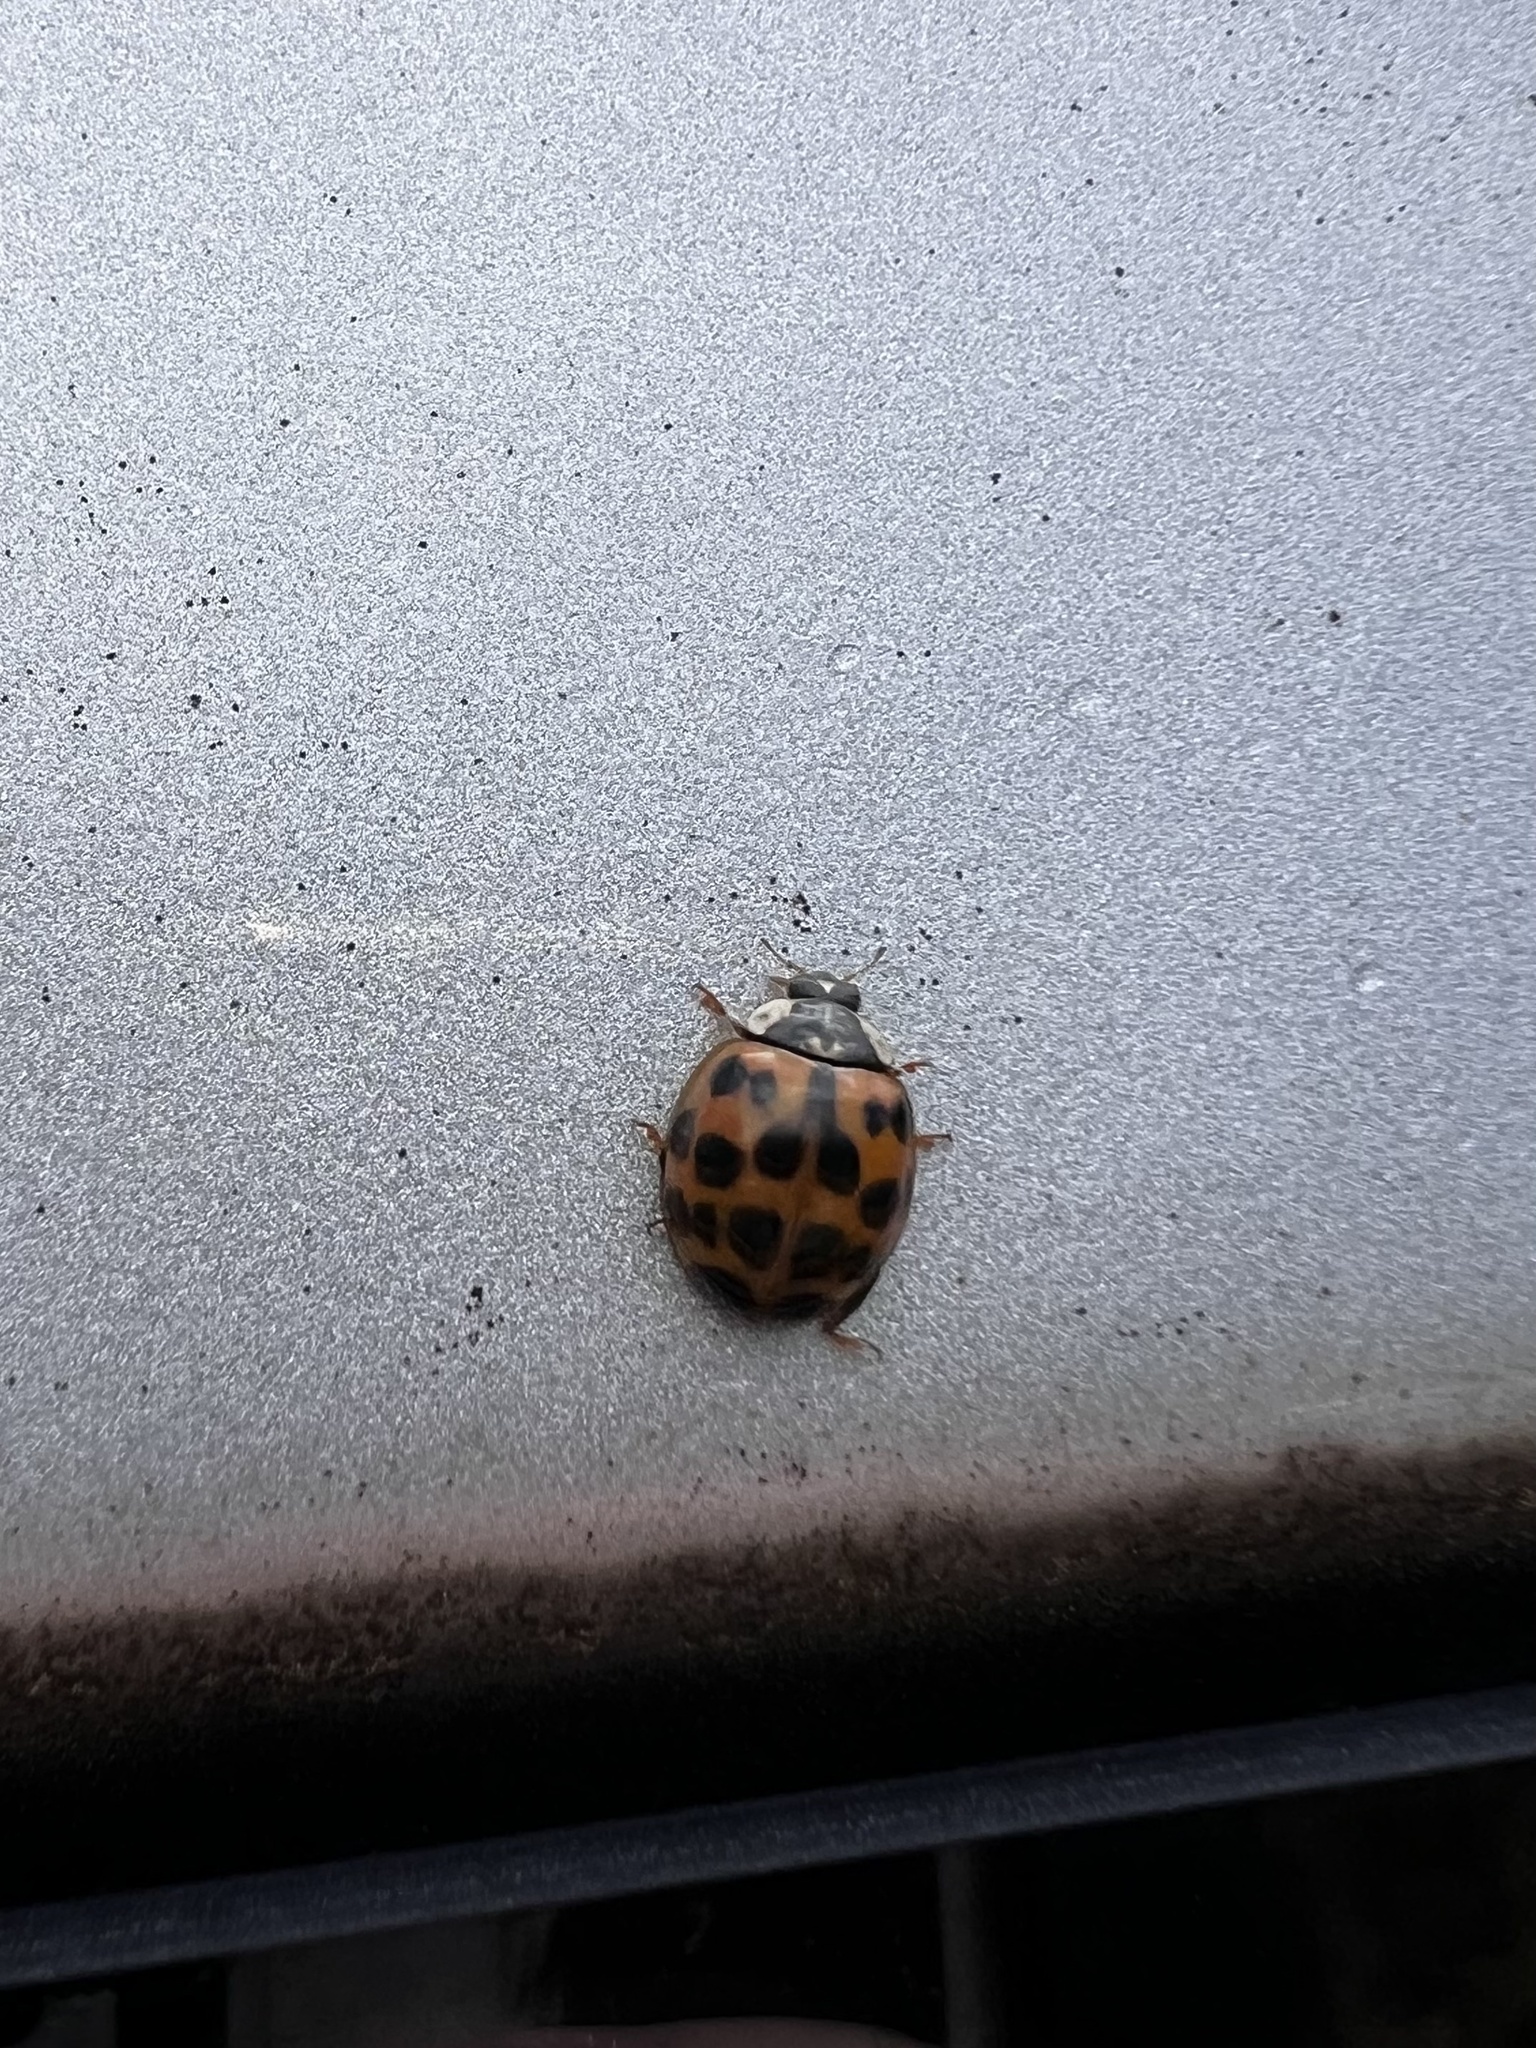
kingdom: Animalia
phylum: Arthropoda
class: Insecta
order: Coleoptera
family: Coccinellidae
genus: Harmonia
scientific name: Harmonia axyridis
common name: Harlequin ladybird
